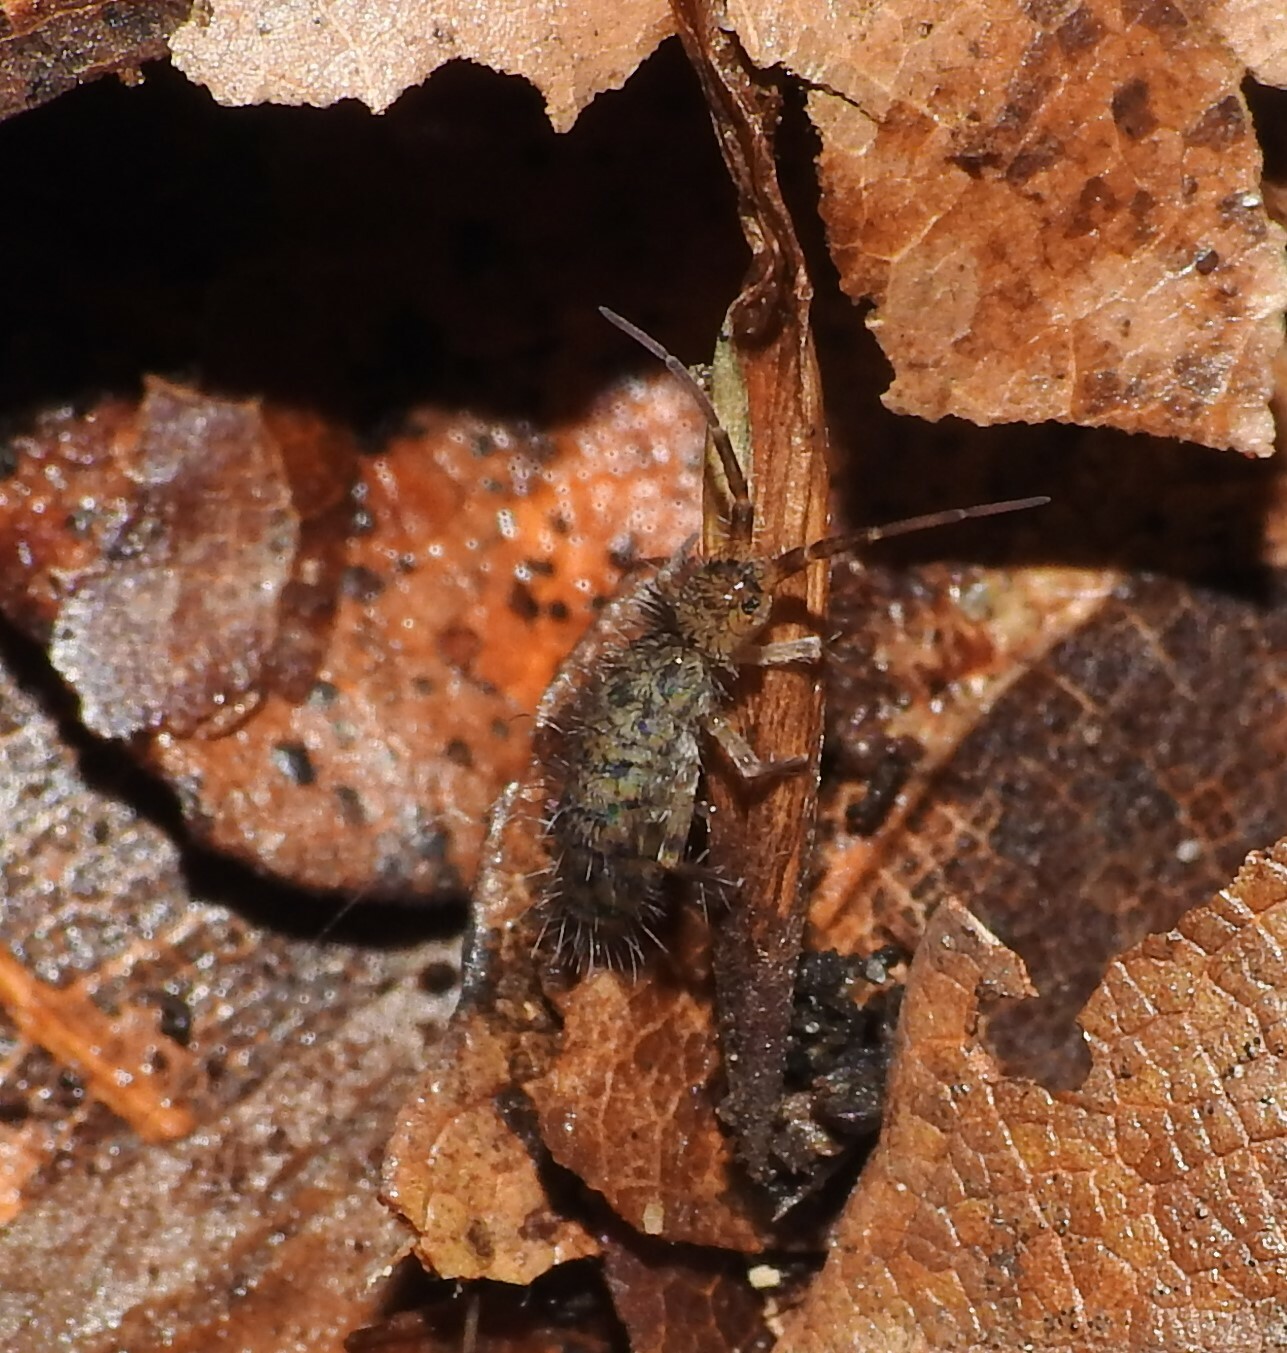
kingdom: Animalia
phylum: Arthropoda
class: Collembola
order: Entomobryomorpha
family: Orchesellidae
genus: Orchesella
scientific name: Orchesella villosa
